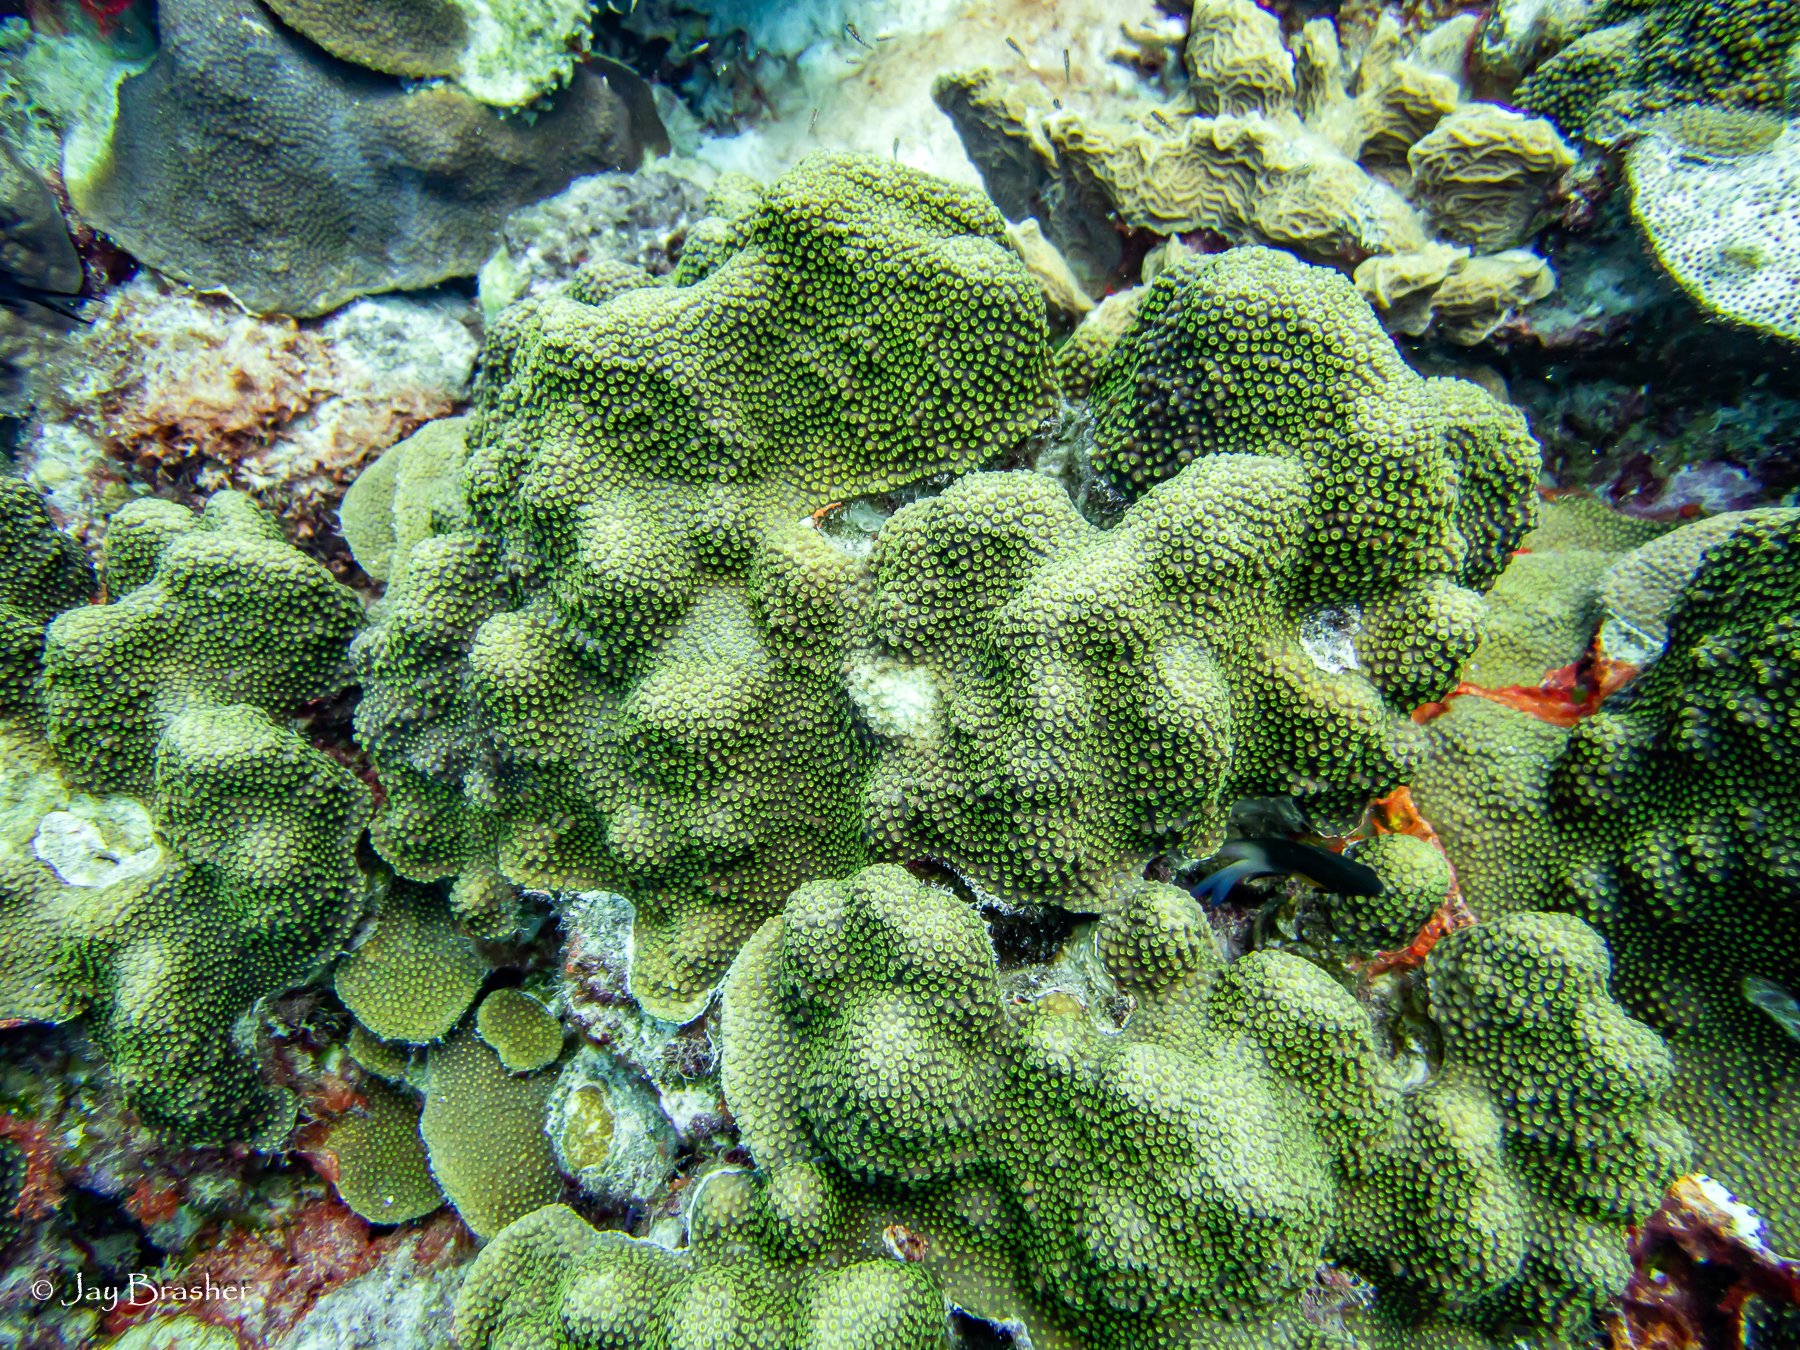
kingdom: Animalia
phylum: Cnidaria
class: Anthozoa
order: Scleractinia
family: Merulinidae
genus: Orbicella
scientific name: Orbicella faveolata
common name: Mountainous star coral
